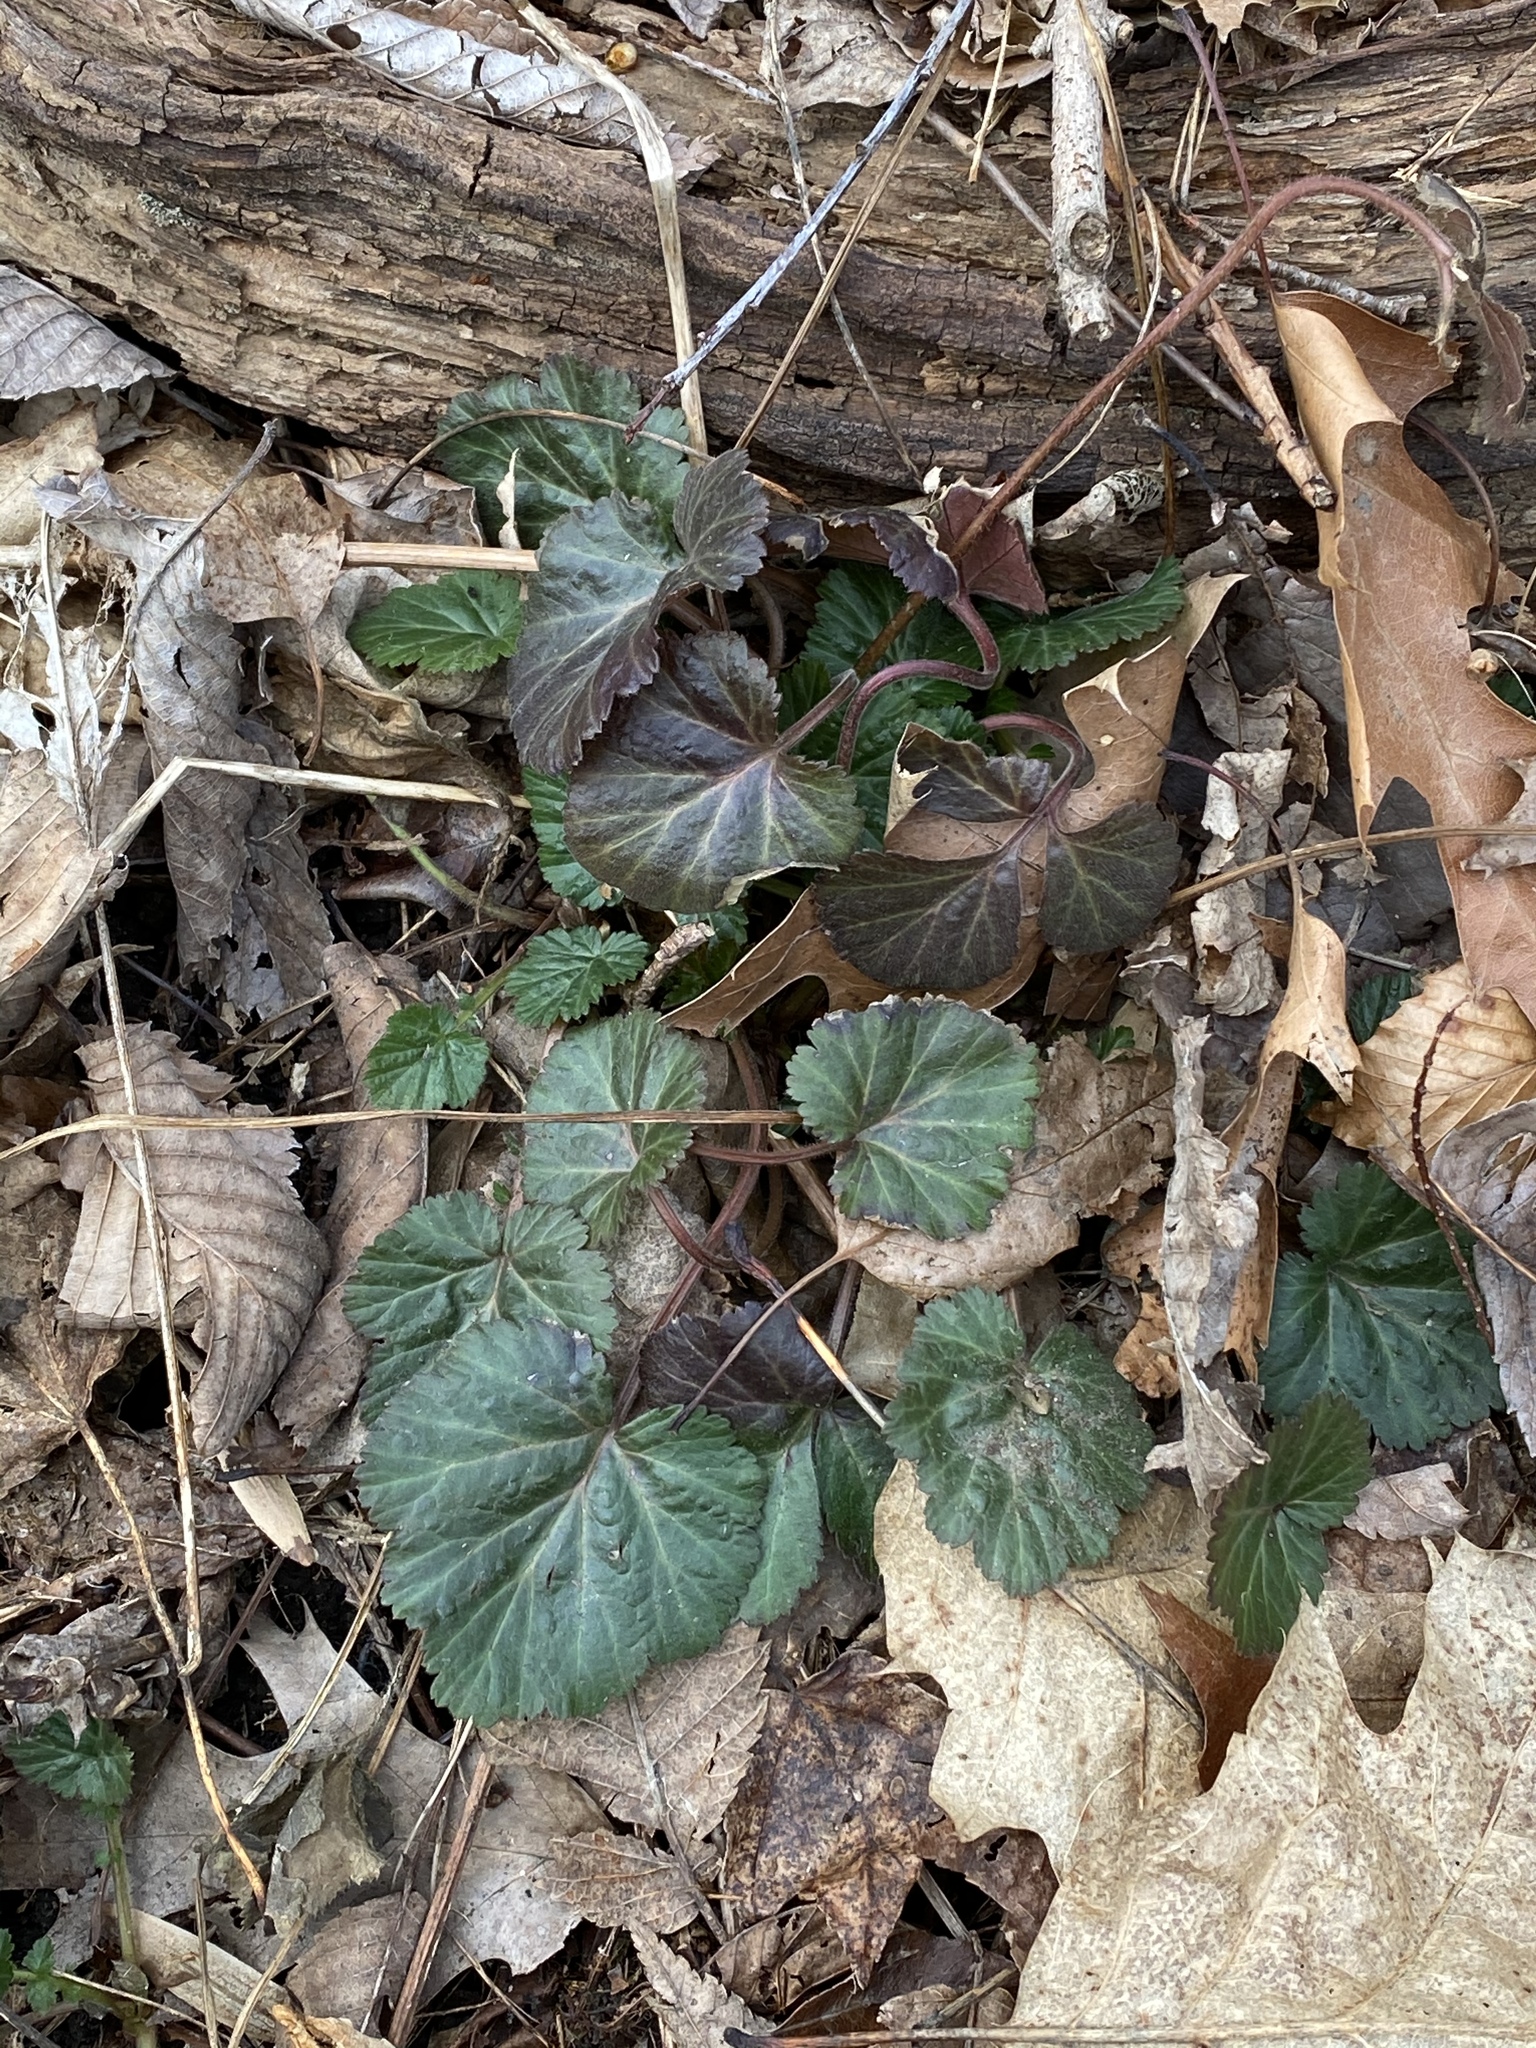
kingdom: Plantae
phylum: Tracheophyta
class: Magnoliopsida
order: Rosales
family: Rosaceae
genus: Geum
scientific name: Geum canadense
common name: White avens
